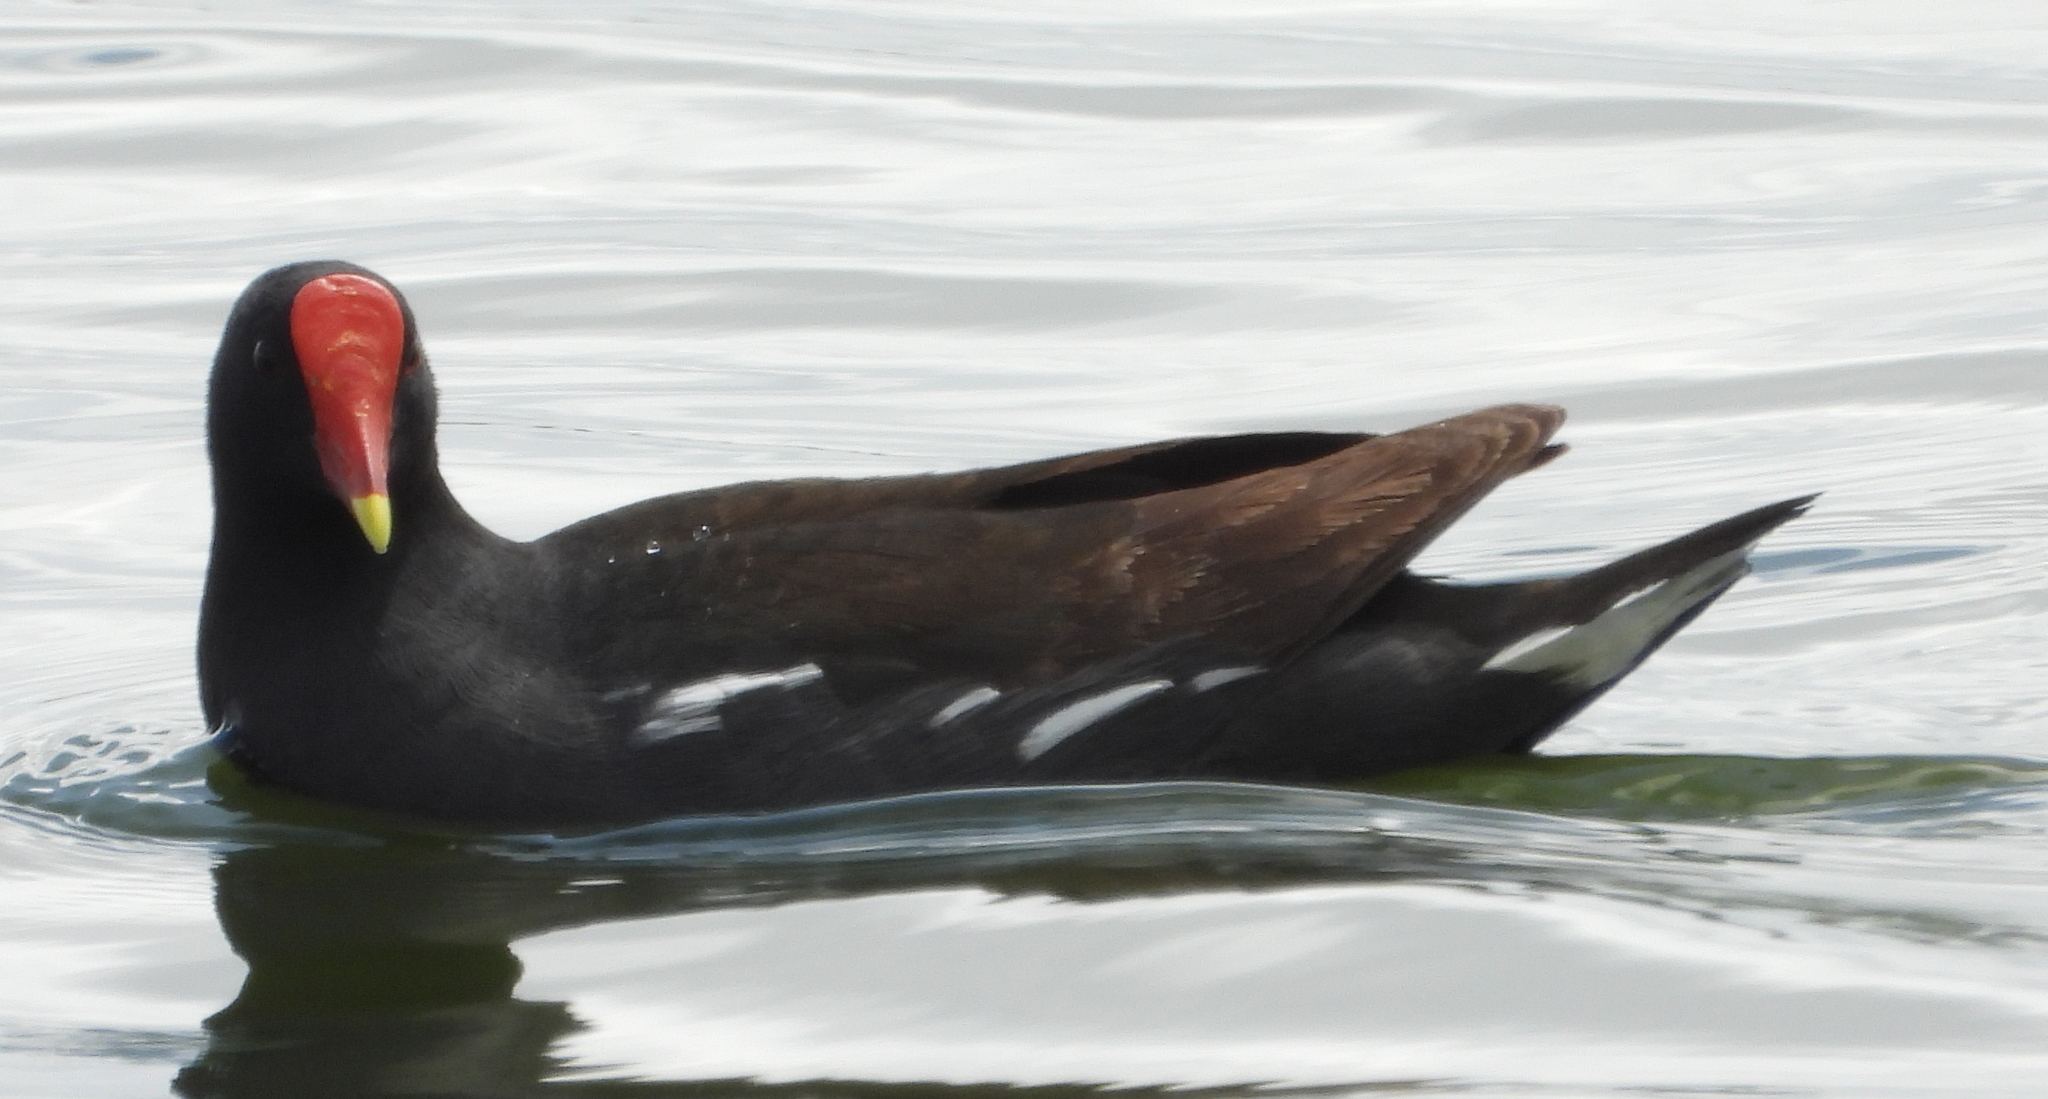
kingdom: Animalia
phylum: Chordata
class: Aves
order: Gruiformes
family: Rallidae
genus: Gallinula
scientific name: Gallinula chloropus
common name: Common moorhen
